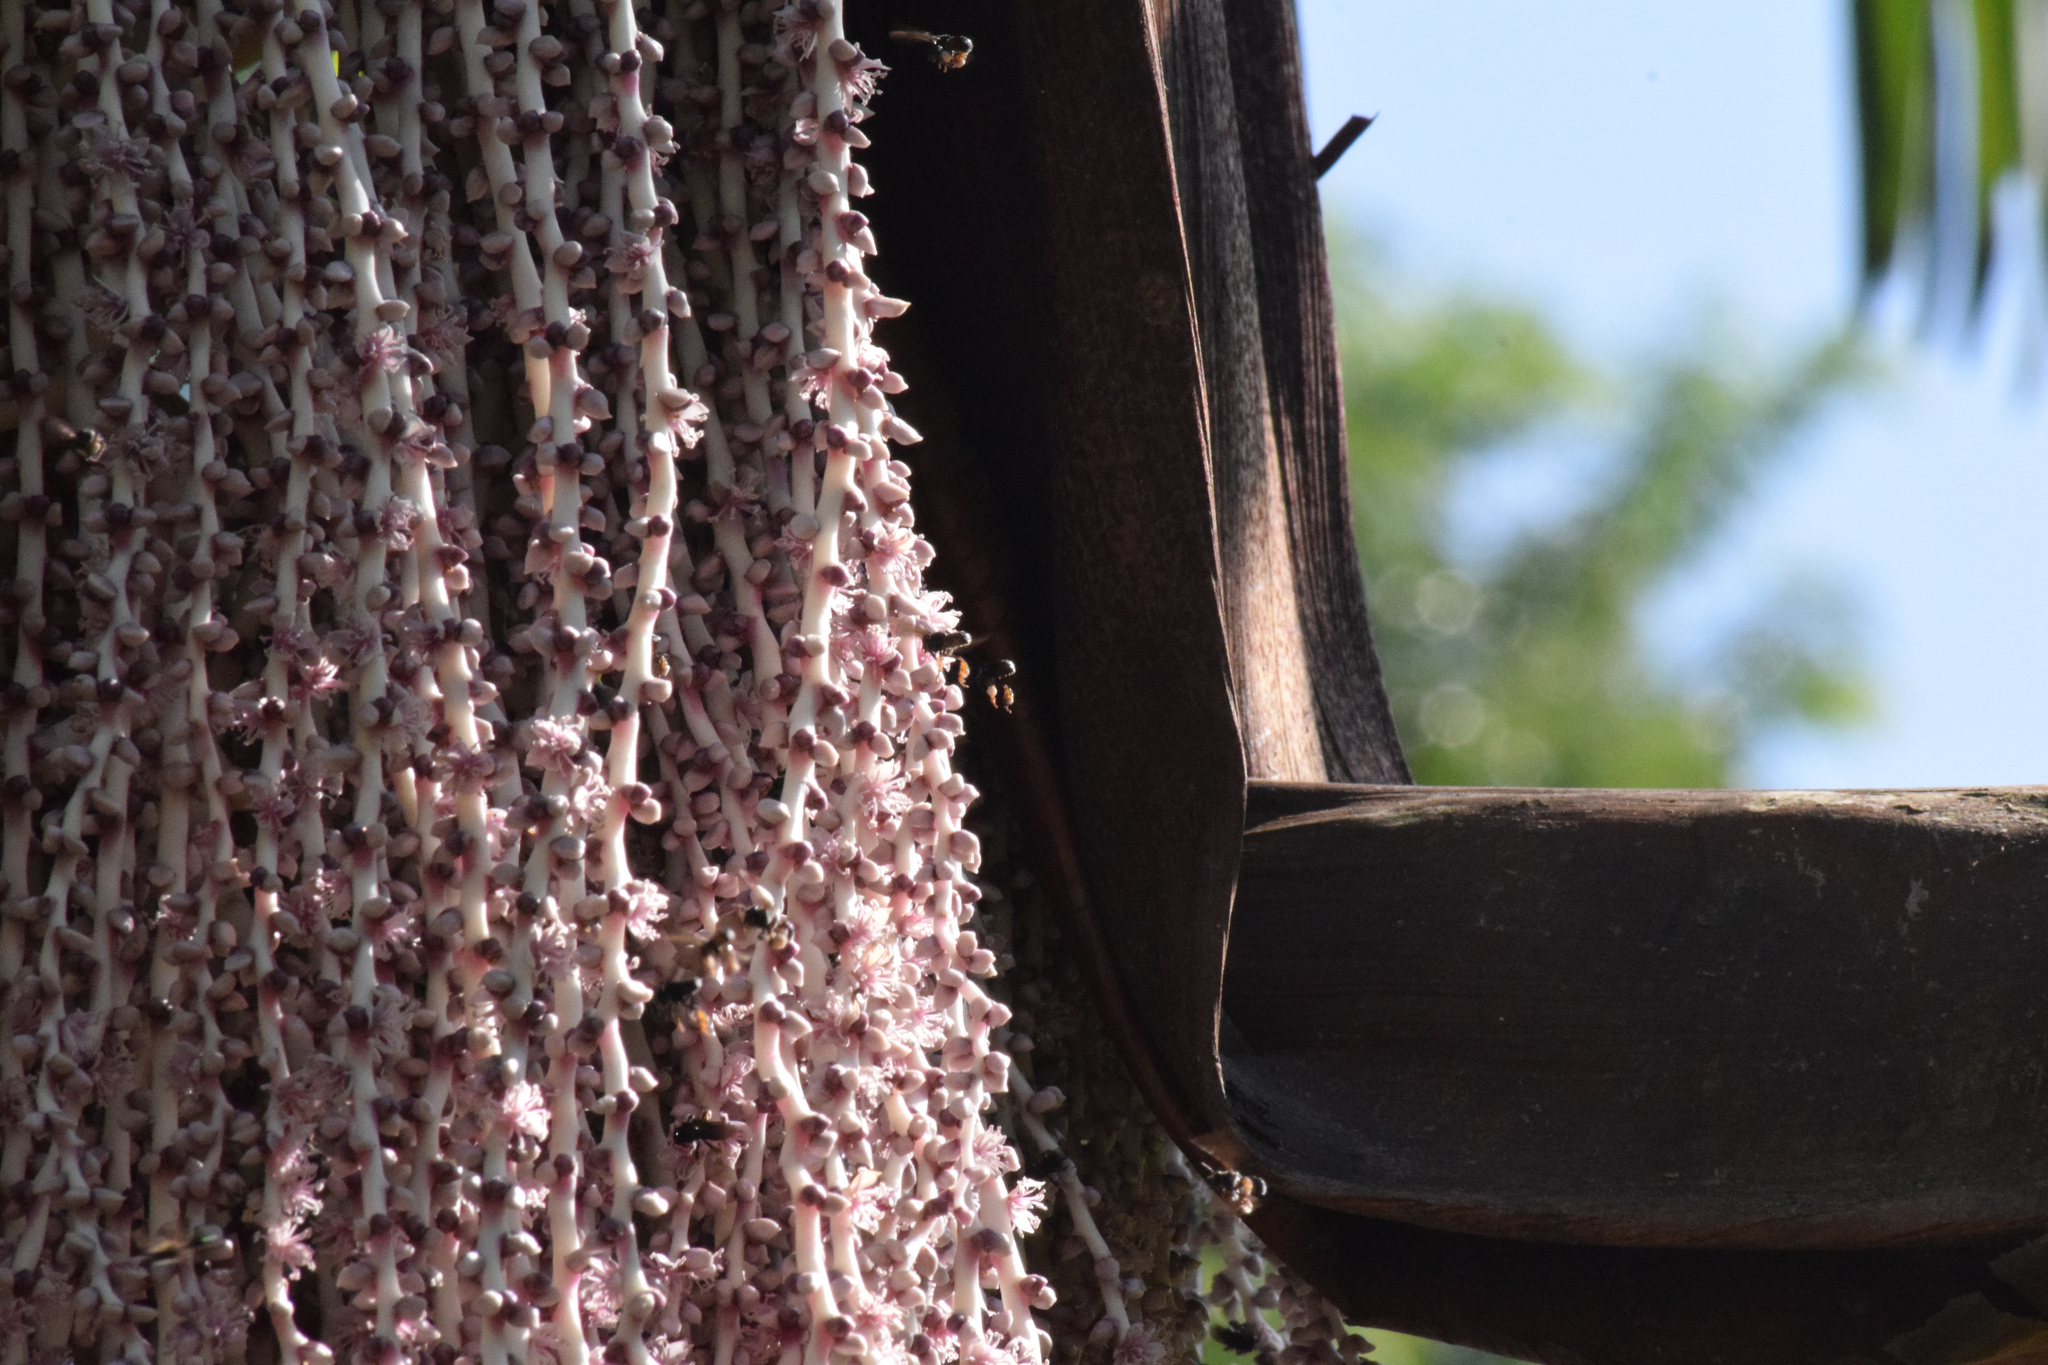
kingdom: Animalia
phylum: Arthropoda
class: Insecta
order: Hymenoptera
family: Apidae
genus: Trigona
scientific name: Trigona spinipes
